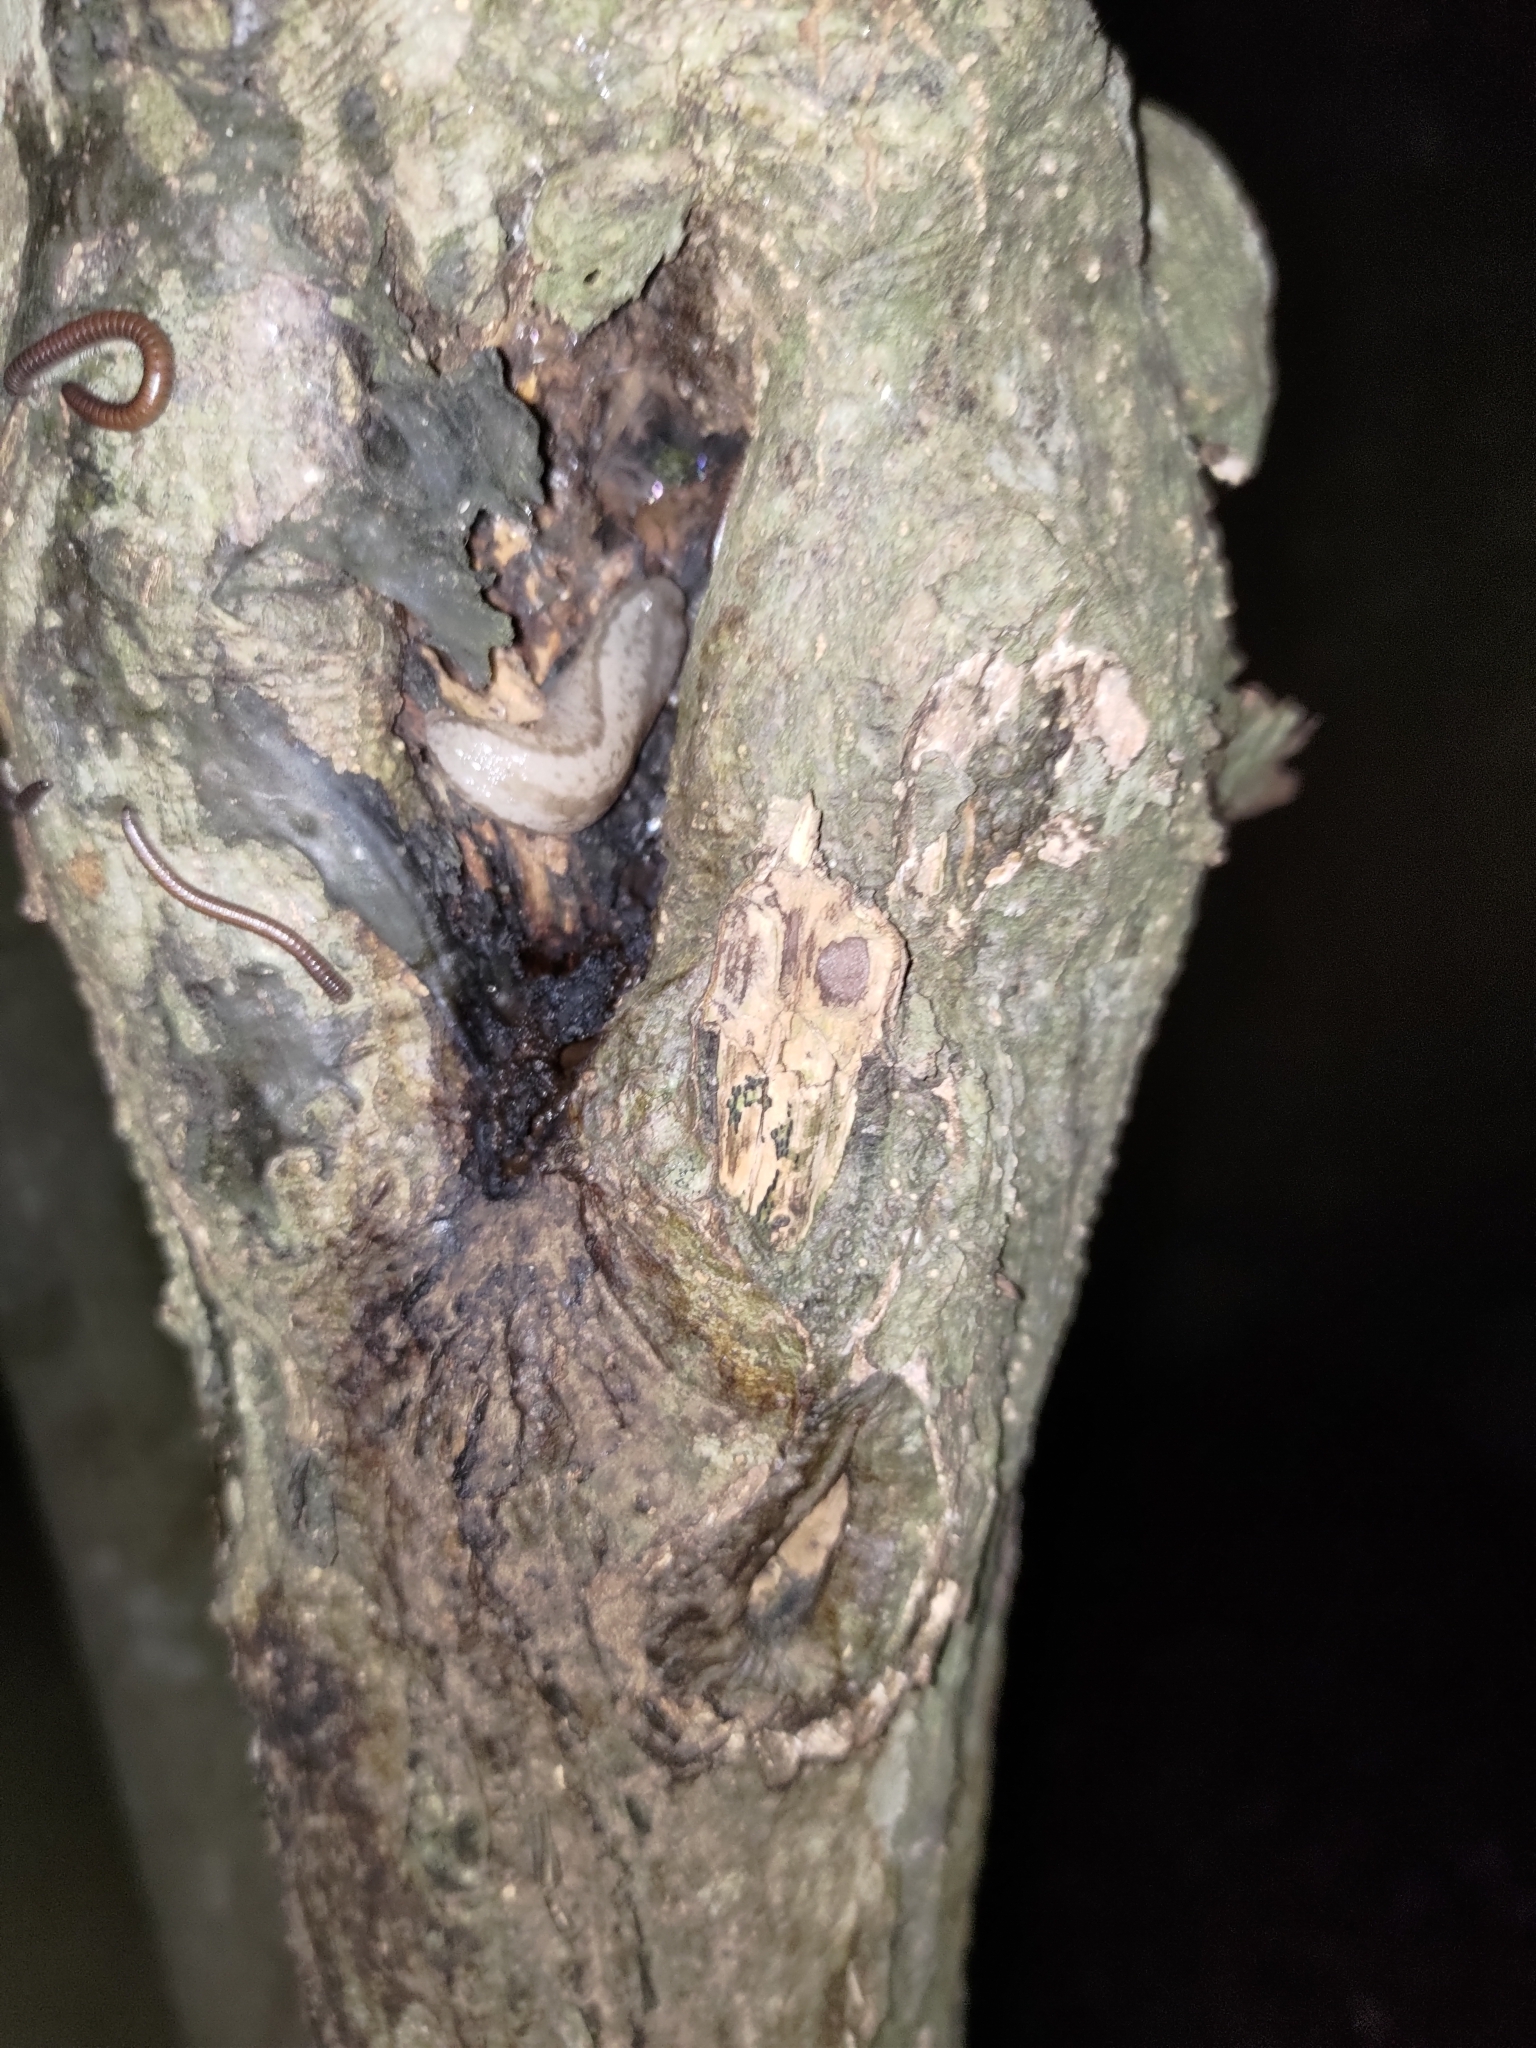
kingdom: Animalia
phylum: Mollusca
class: Gastropoda
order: Stylommatophora
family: Philomycidae
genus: Meghimatium
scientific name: Meghimatium bilineatum
